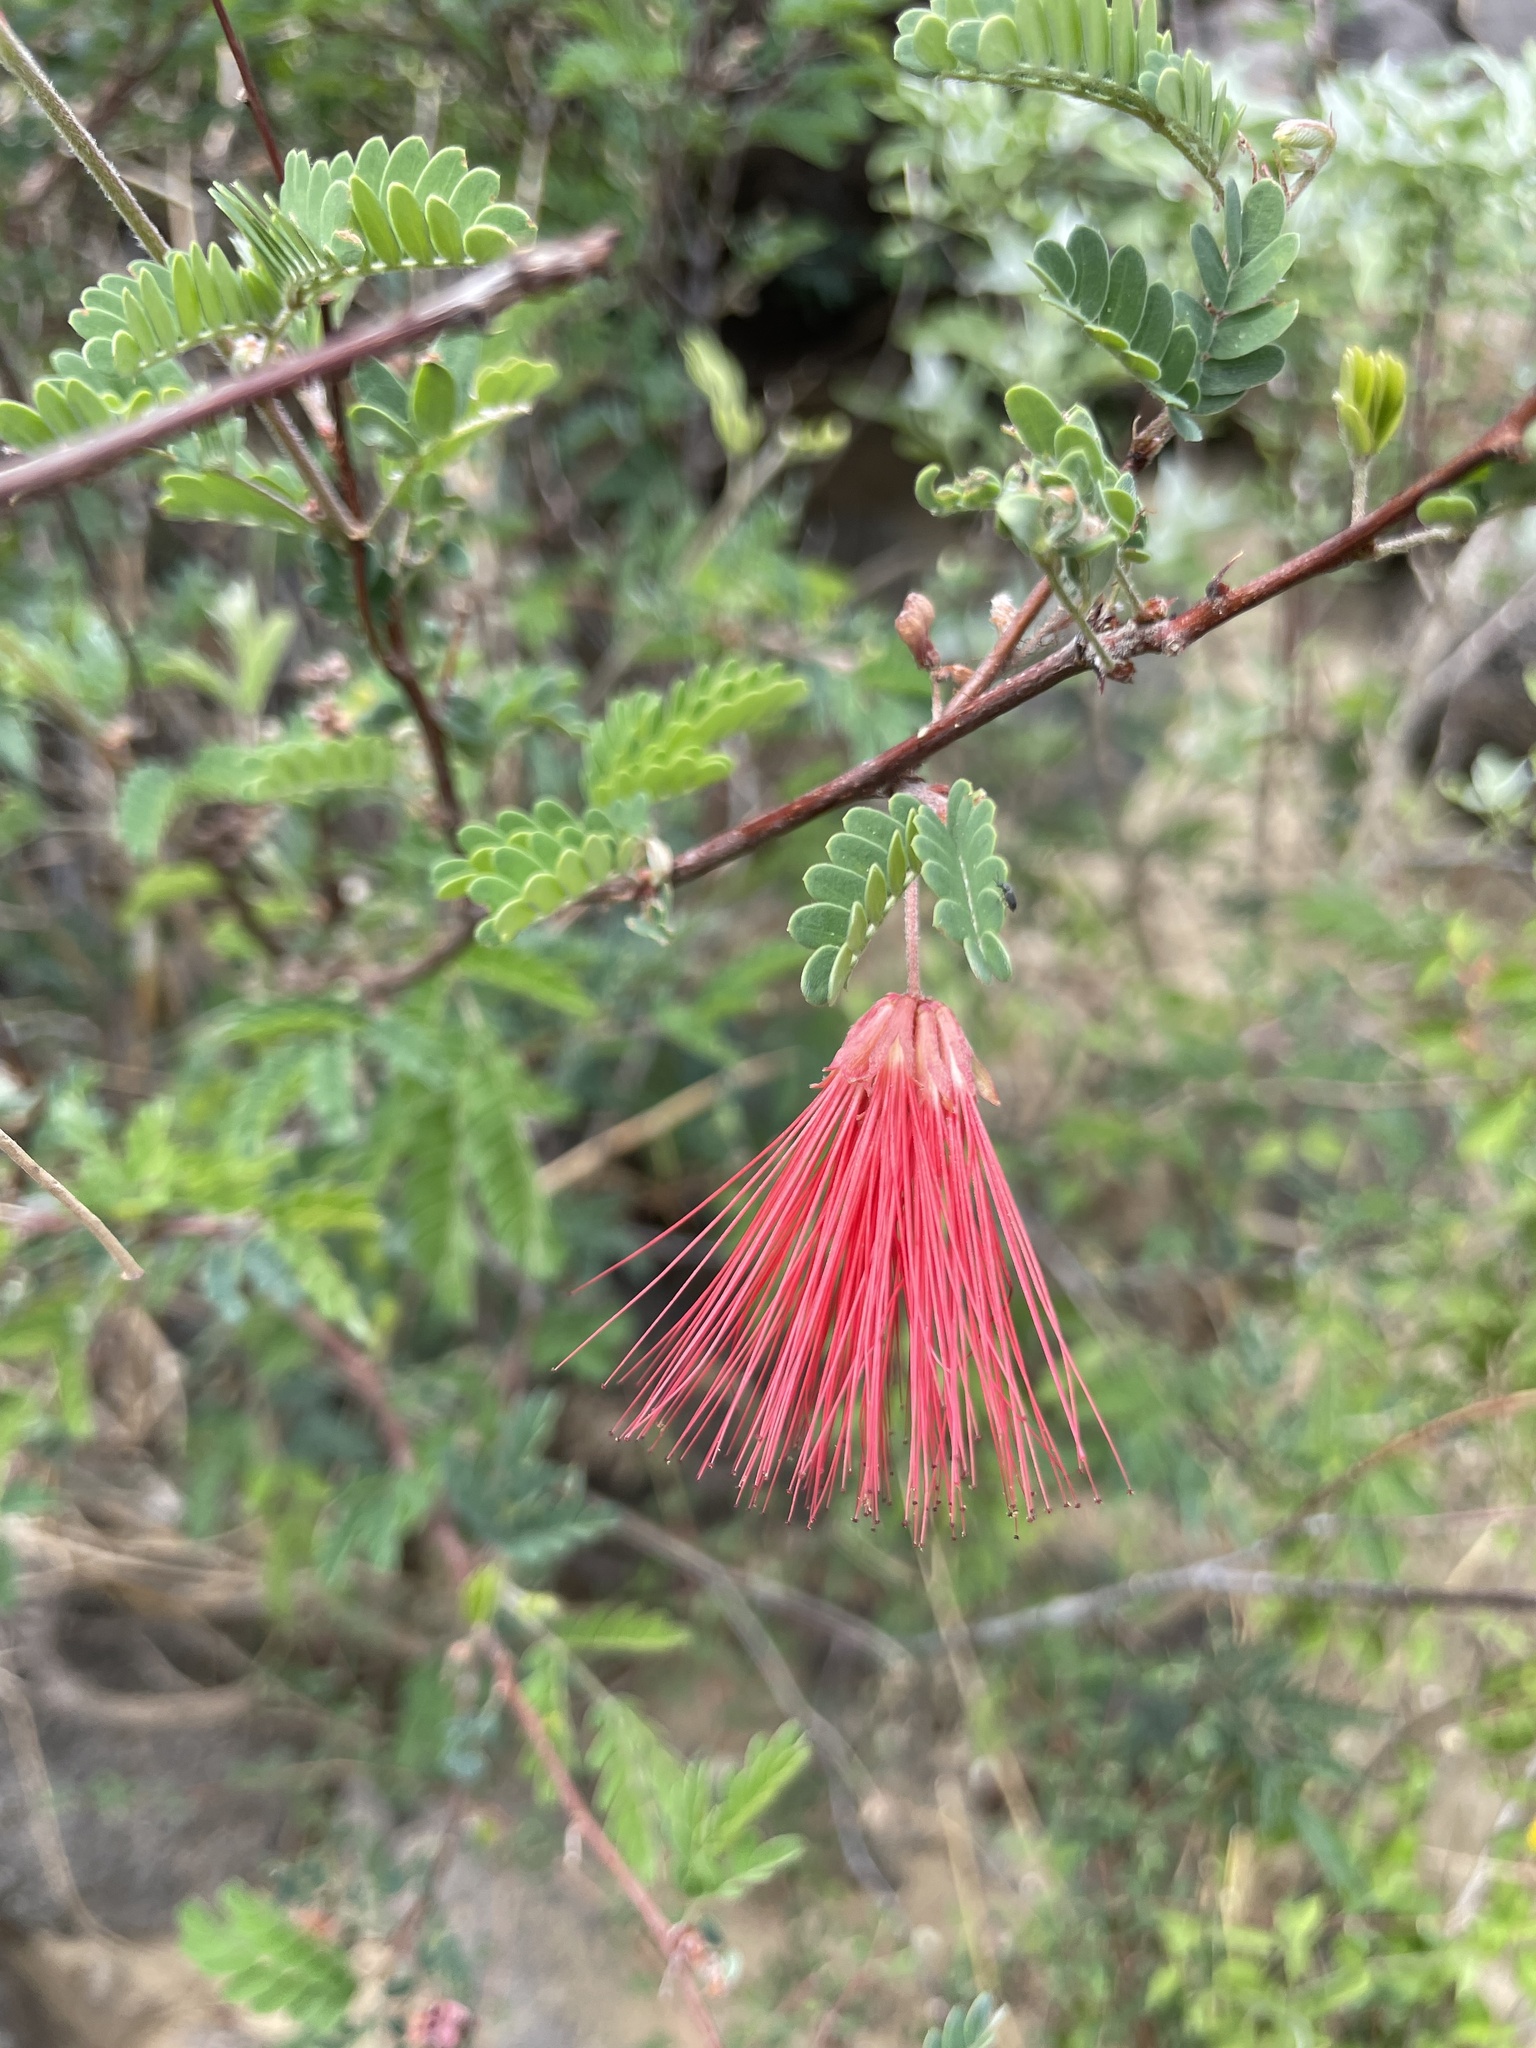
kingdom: Plantae
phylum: Tracheophyta
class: Magnoliopsida
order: Fabales
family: Fabaceae
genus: Calliandra
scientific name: Calliandra californica
